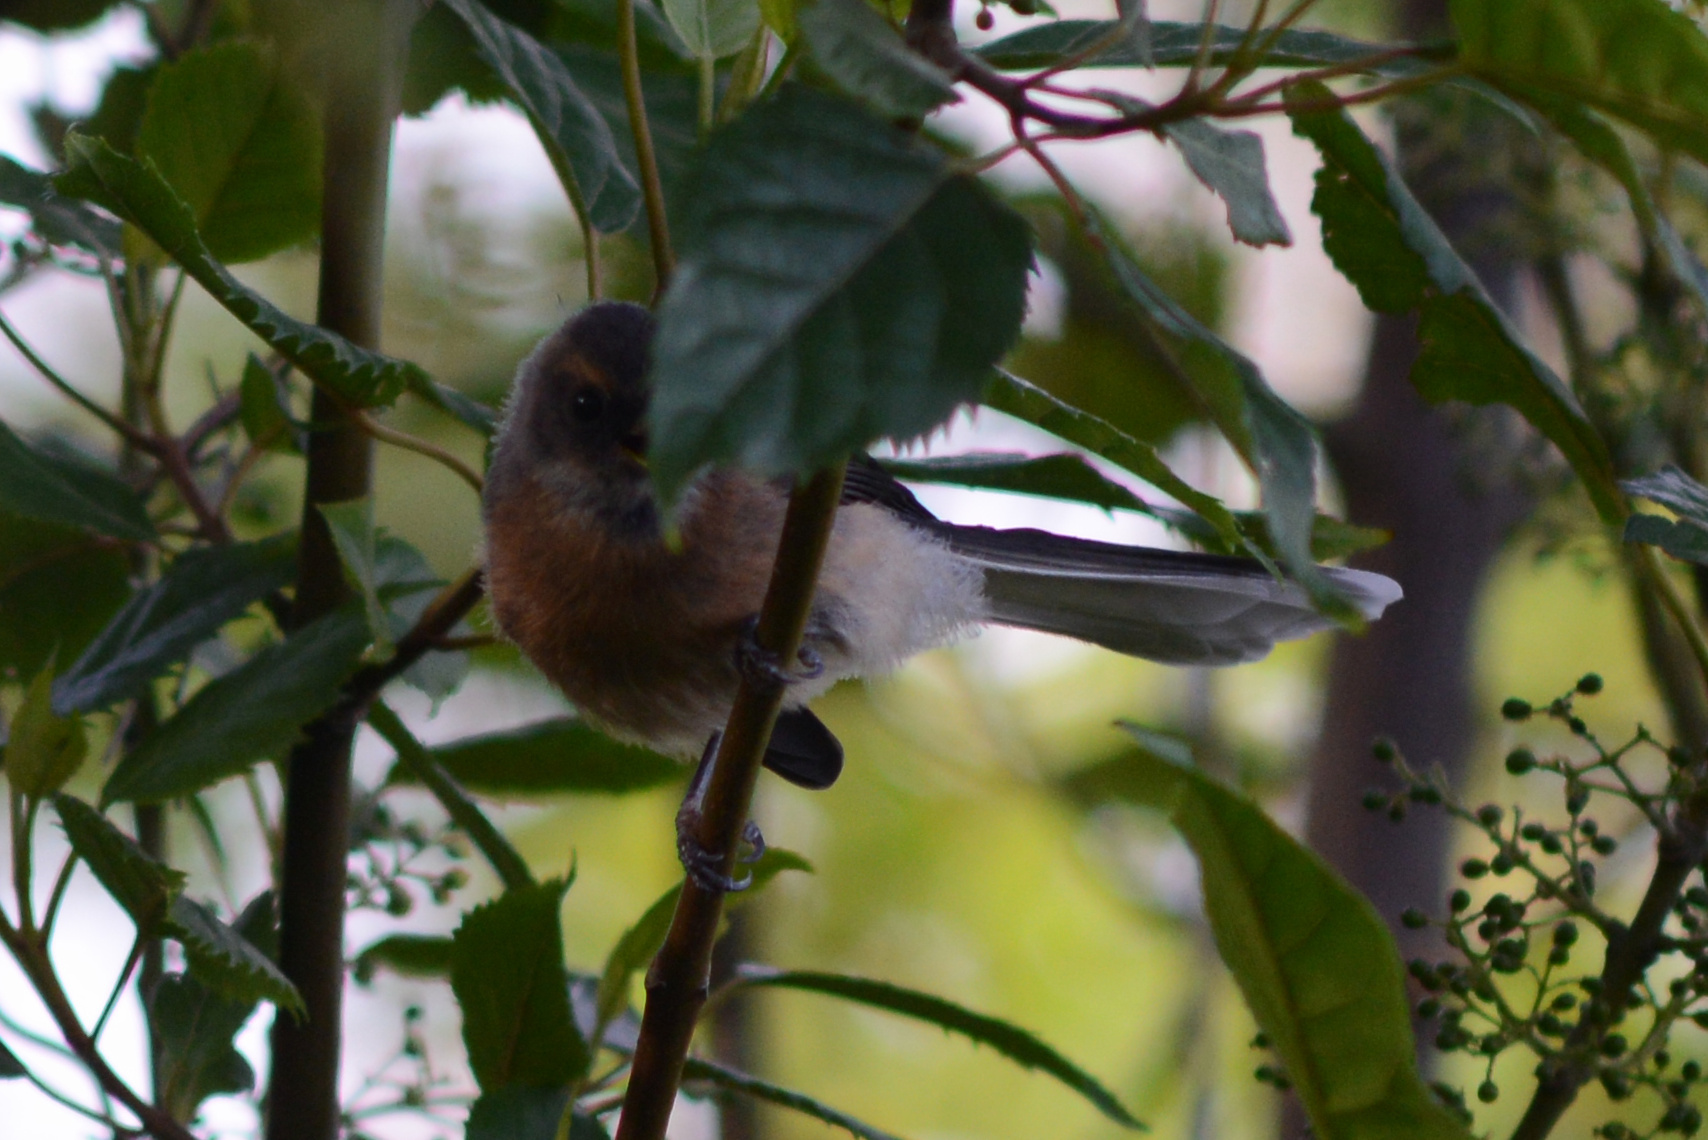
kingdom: Animalia
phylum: Chordata
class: Aves
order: Passeriformes
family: Rhipiduridae
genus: Rhipidura
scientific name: Rhipidura fuliginosa
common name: New zealand fantail
